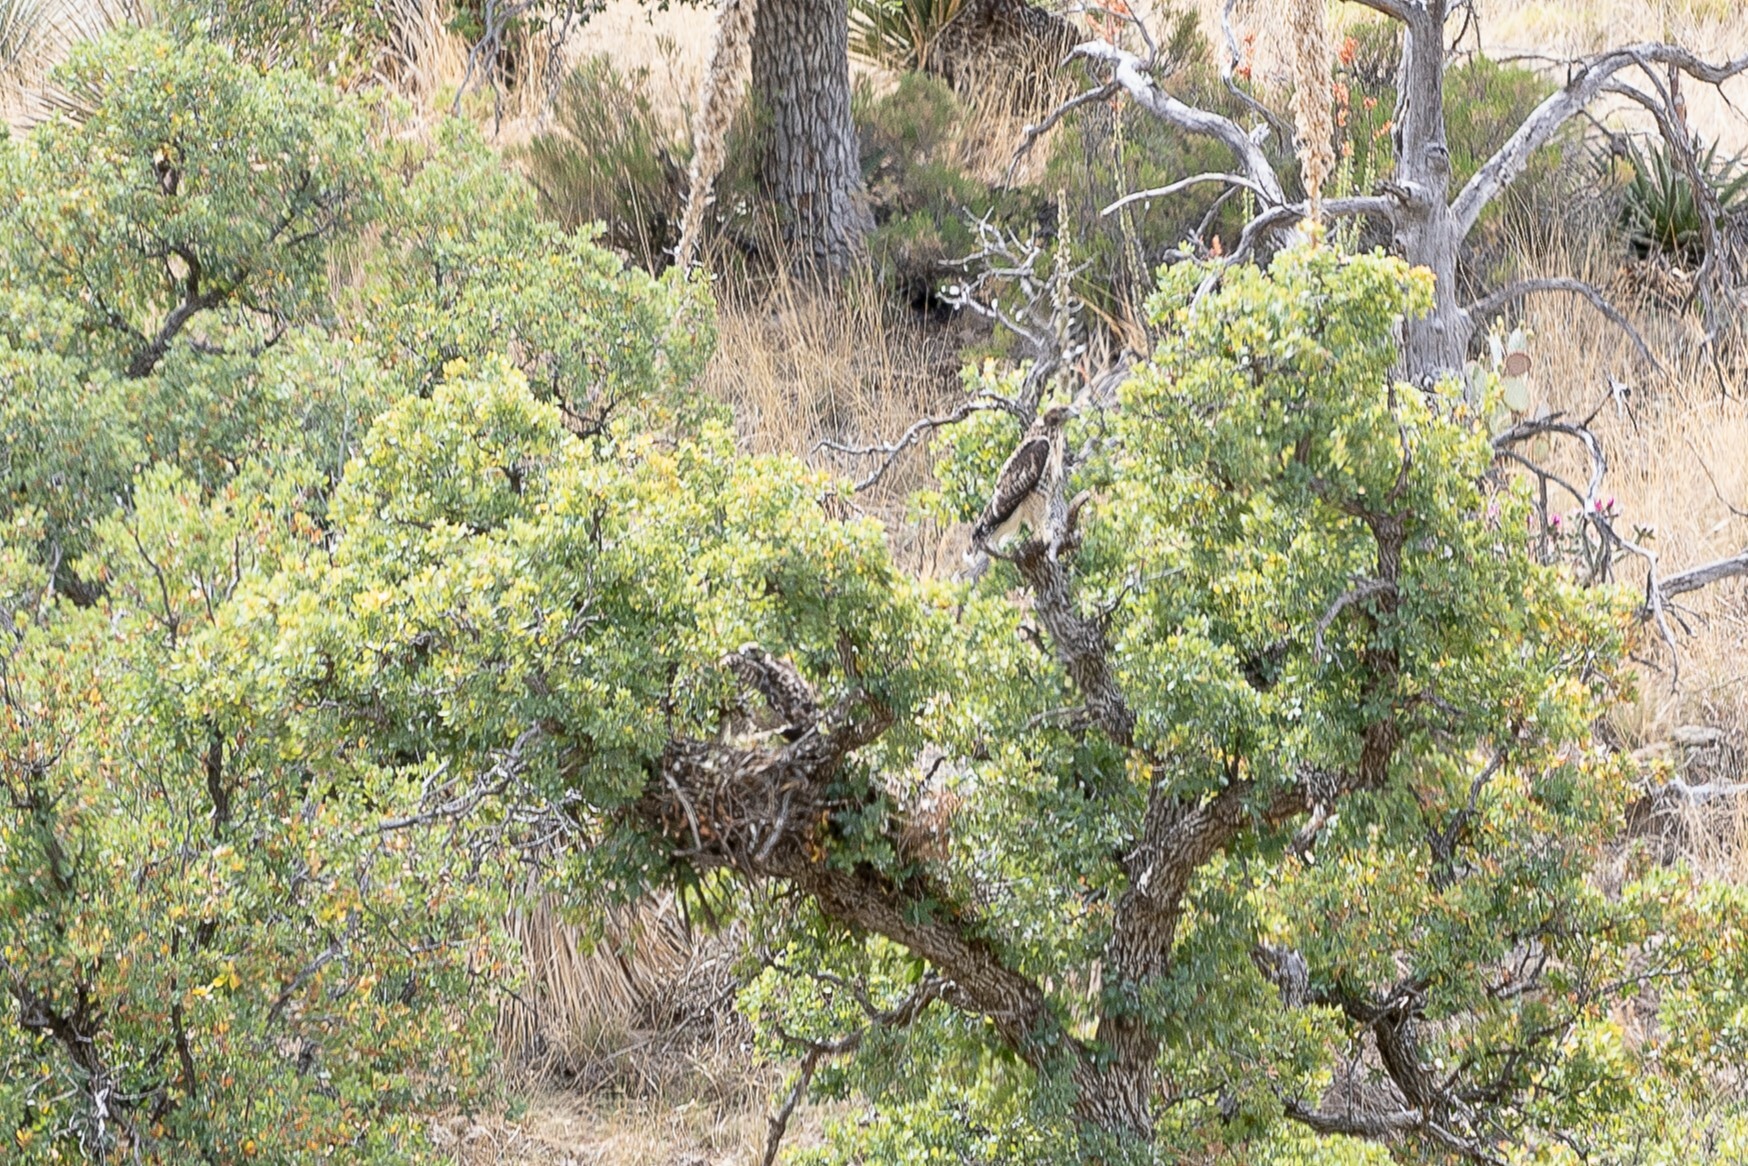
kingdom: Animalia
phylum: Chordata
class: Aves
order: Accipitriformes
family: Accipitridae
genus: Buteo
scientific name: Buteo jamaicensis
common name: Red-tailed hawk
